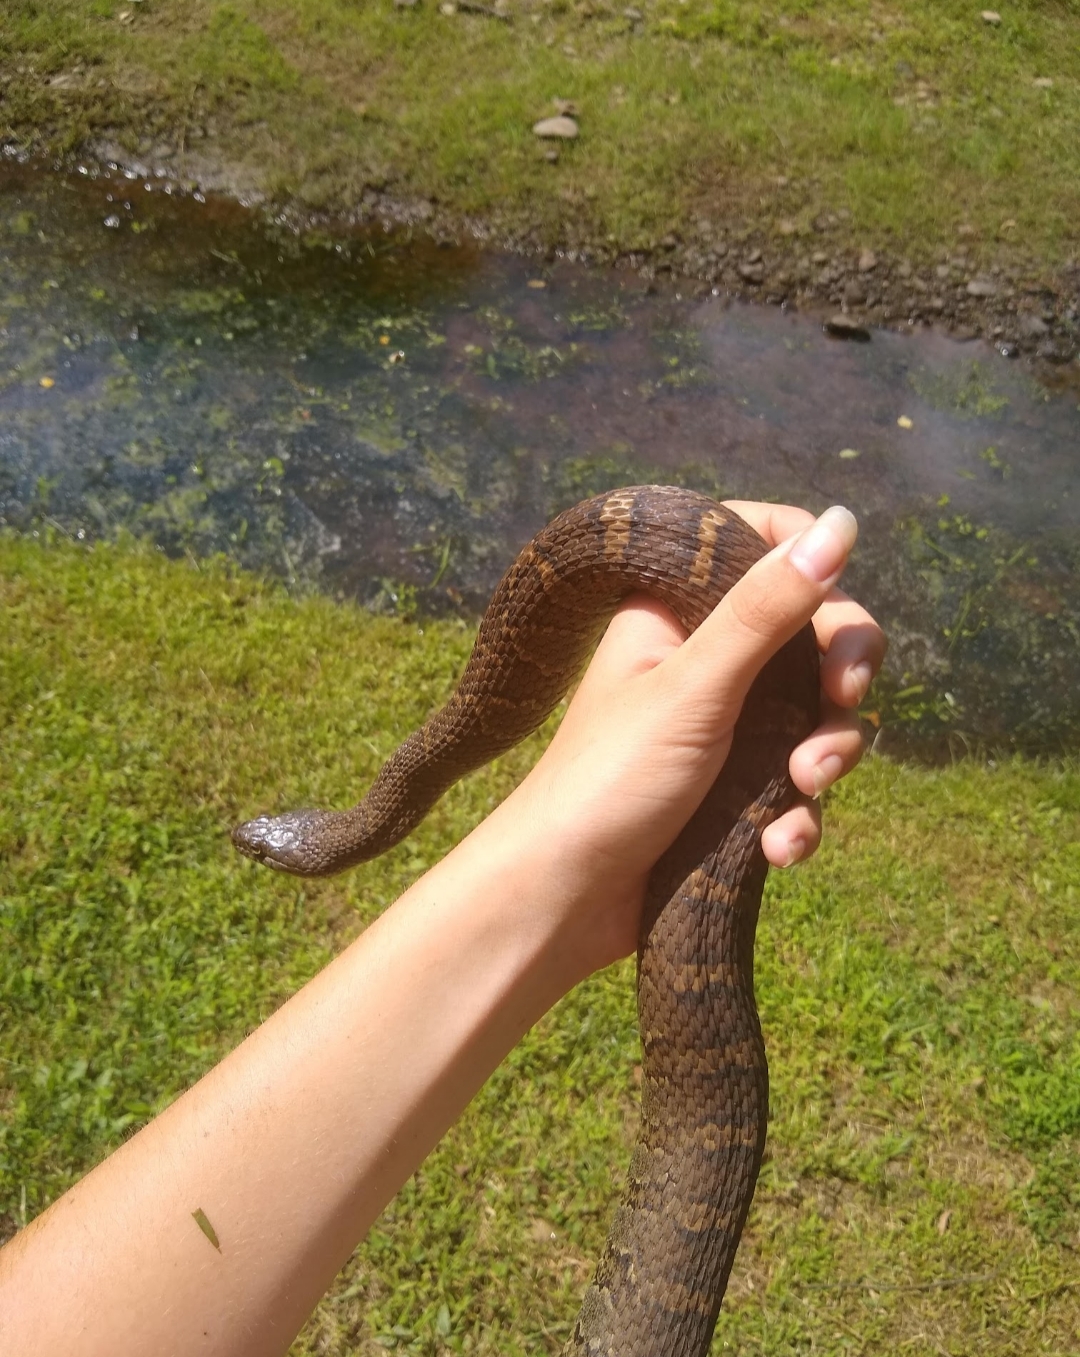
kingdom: Animalia
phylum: Chordata
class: Squamata
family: Colubridae
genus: Nerodia
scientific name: Nerodia sipedon
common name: Northern water snake
